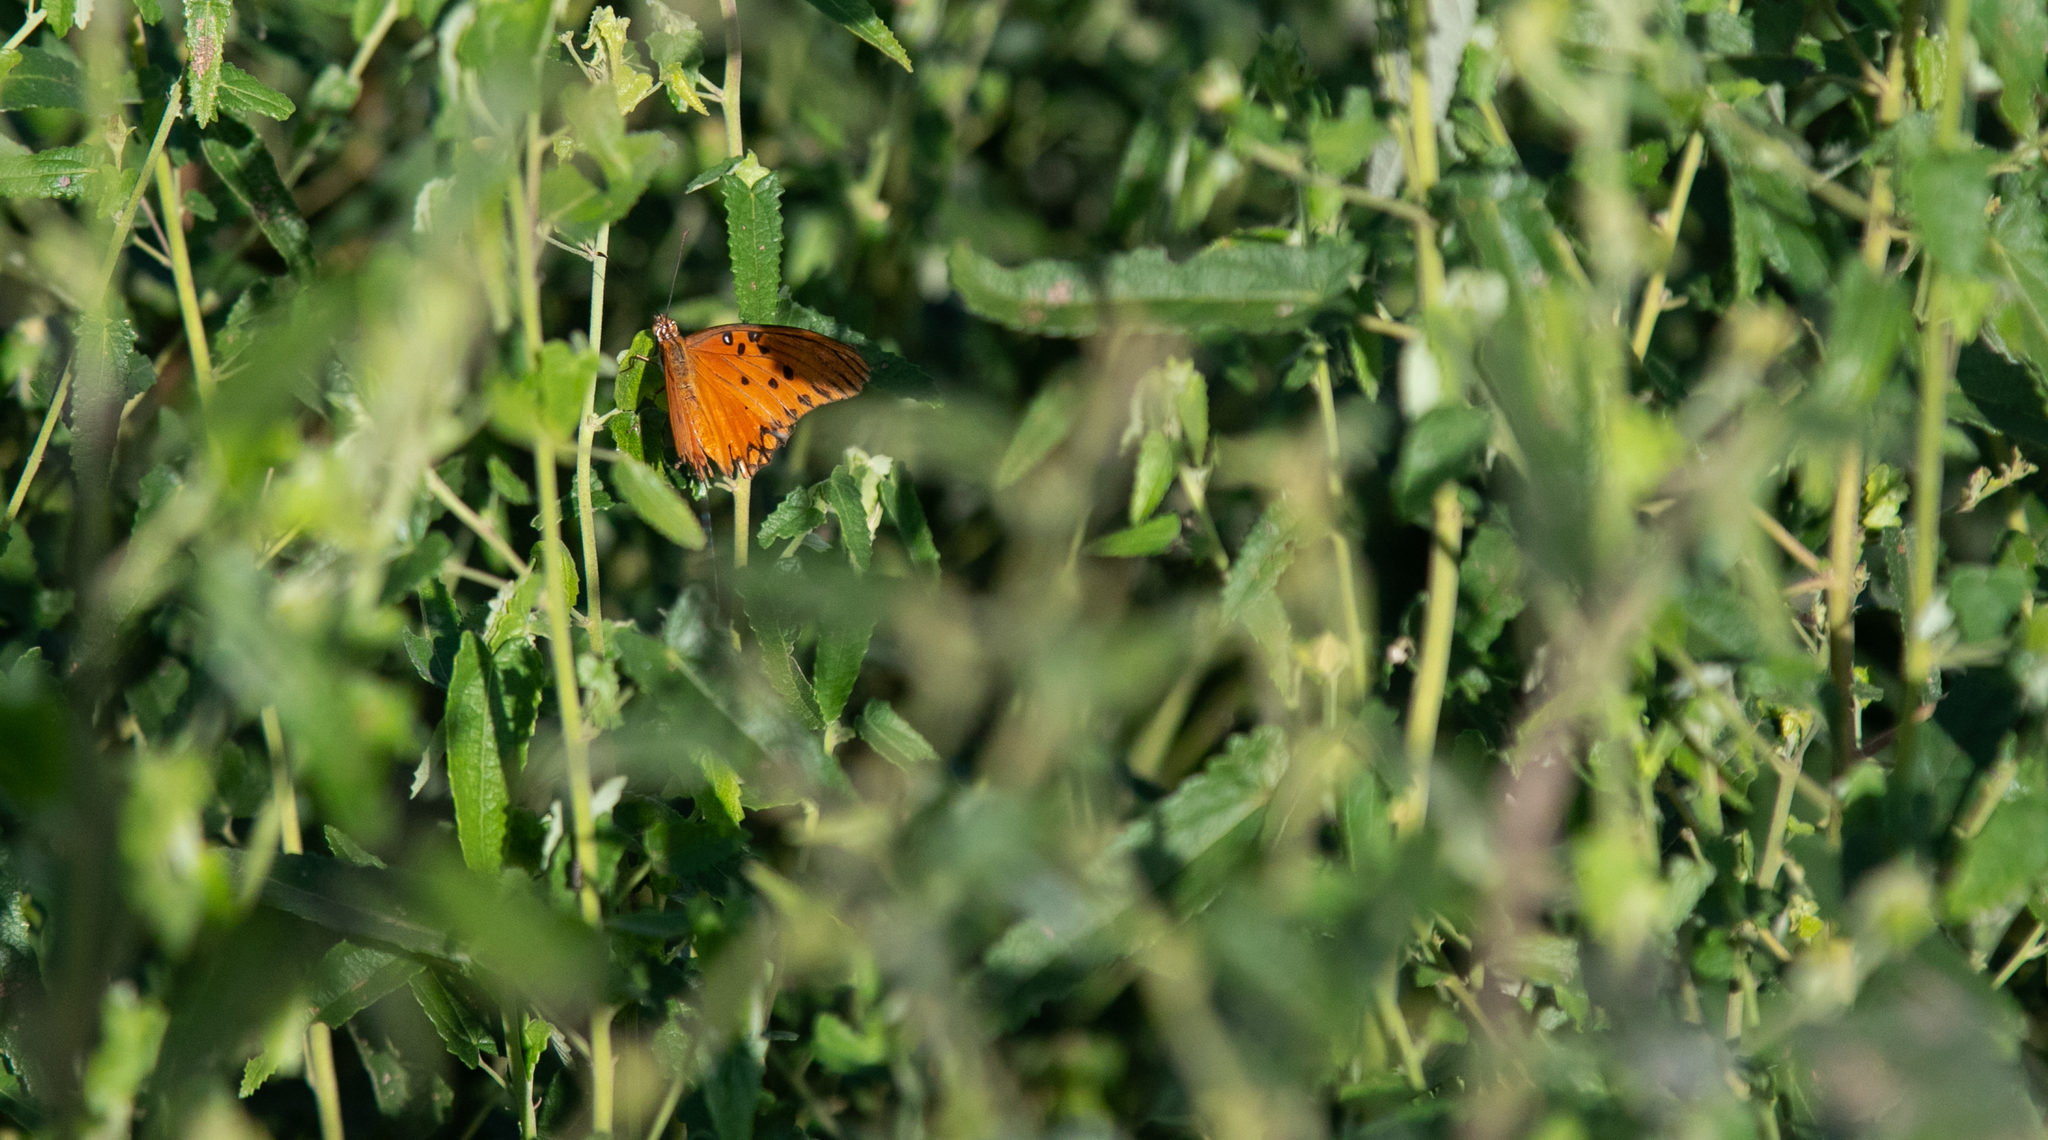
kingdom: Animalia
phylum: Arthropoda
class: Insecta
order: Lepidoptera
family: Nymphalidae
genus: Dione
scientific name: Dione vanillae
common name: Gulf fritillary
